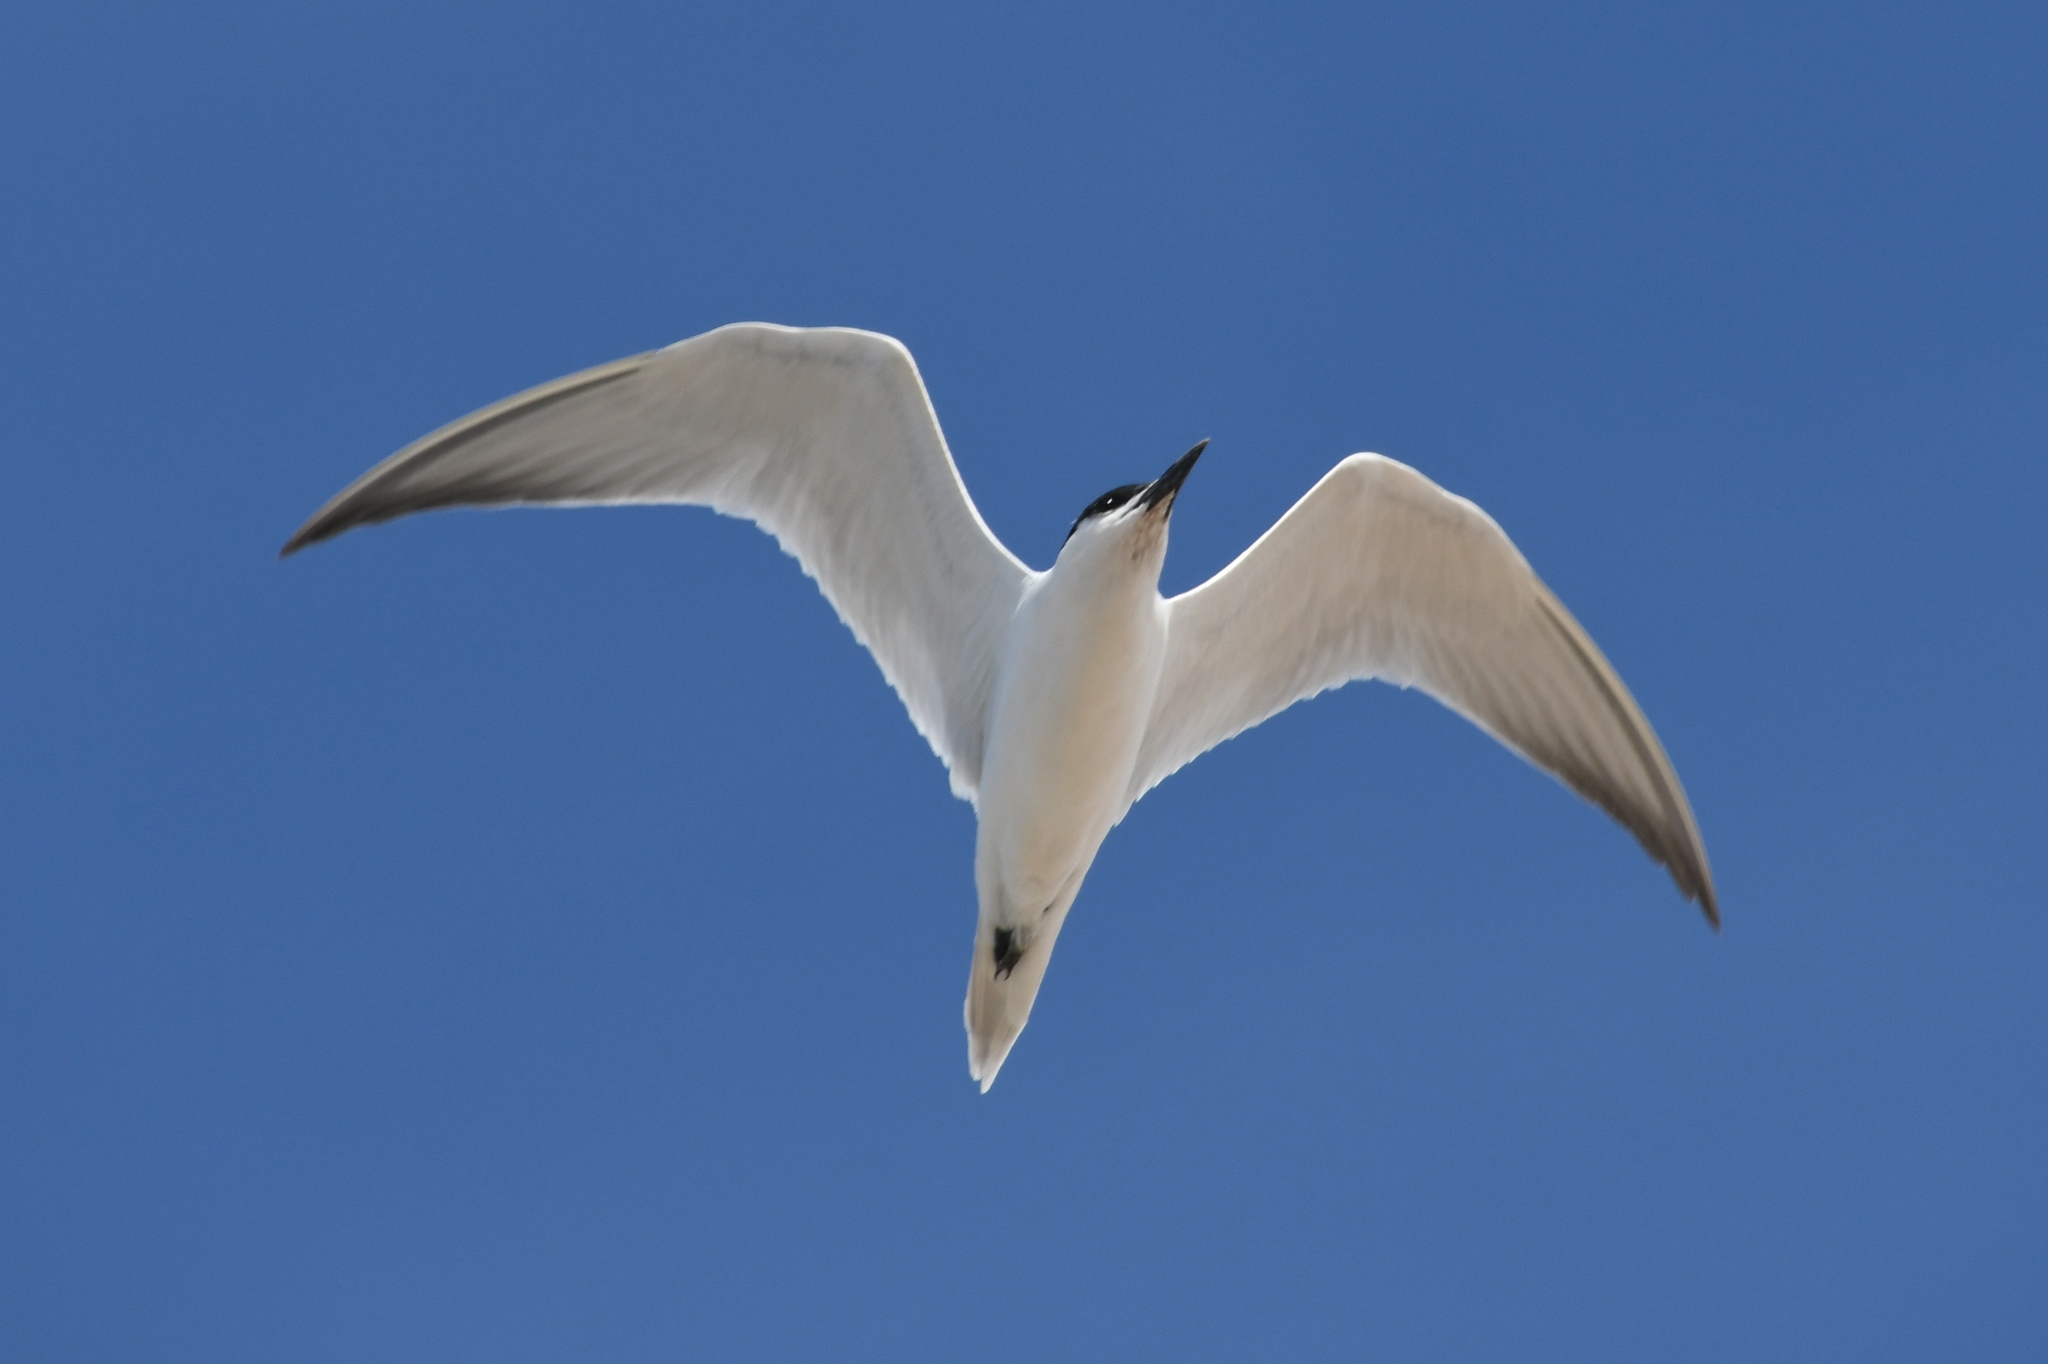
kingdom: Animalia
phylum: Chordata
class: Aves
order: Charadriiformes
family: Laridae
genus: Gelochelidon
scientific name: Gelochelidon nilotica
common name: Gull-billed tern
